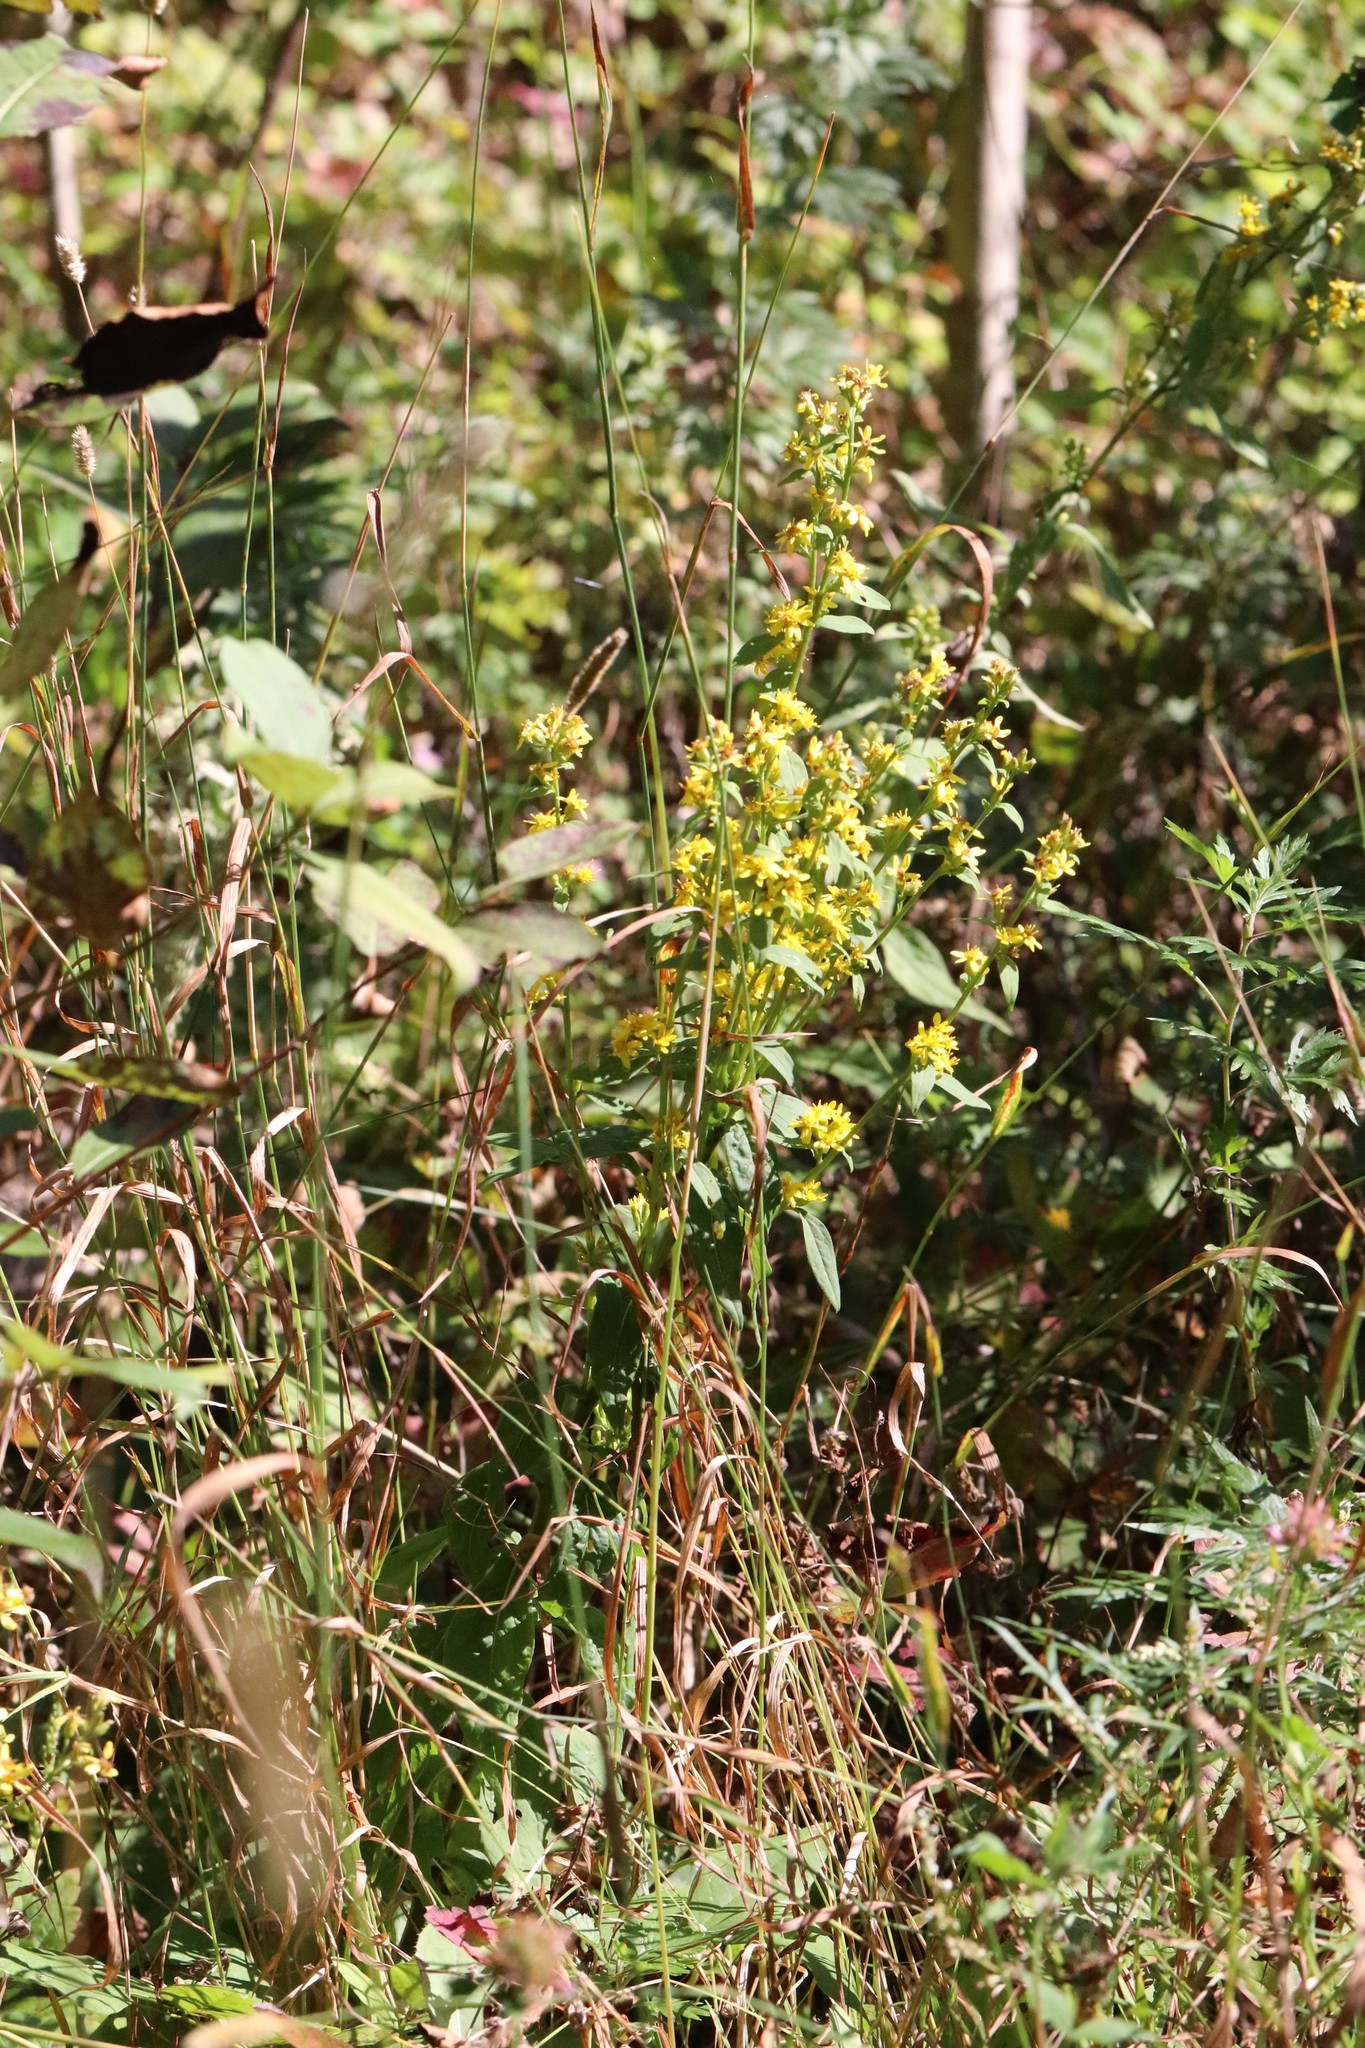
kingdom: Plantae
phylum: Tracheophyta
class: Magnoliopsida
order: Asterales
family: Asteraceae
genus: Solidago
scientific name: Solidago decurrens
